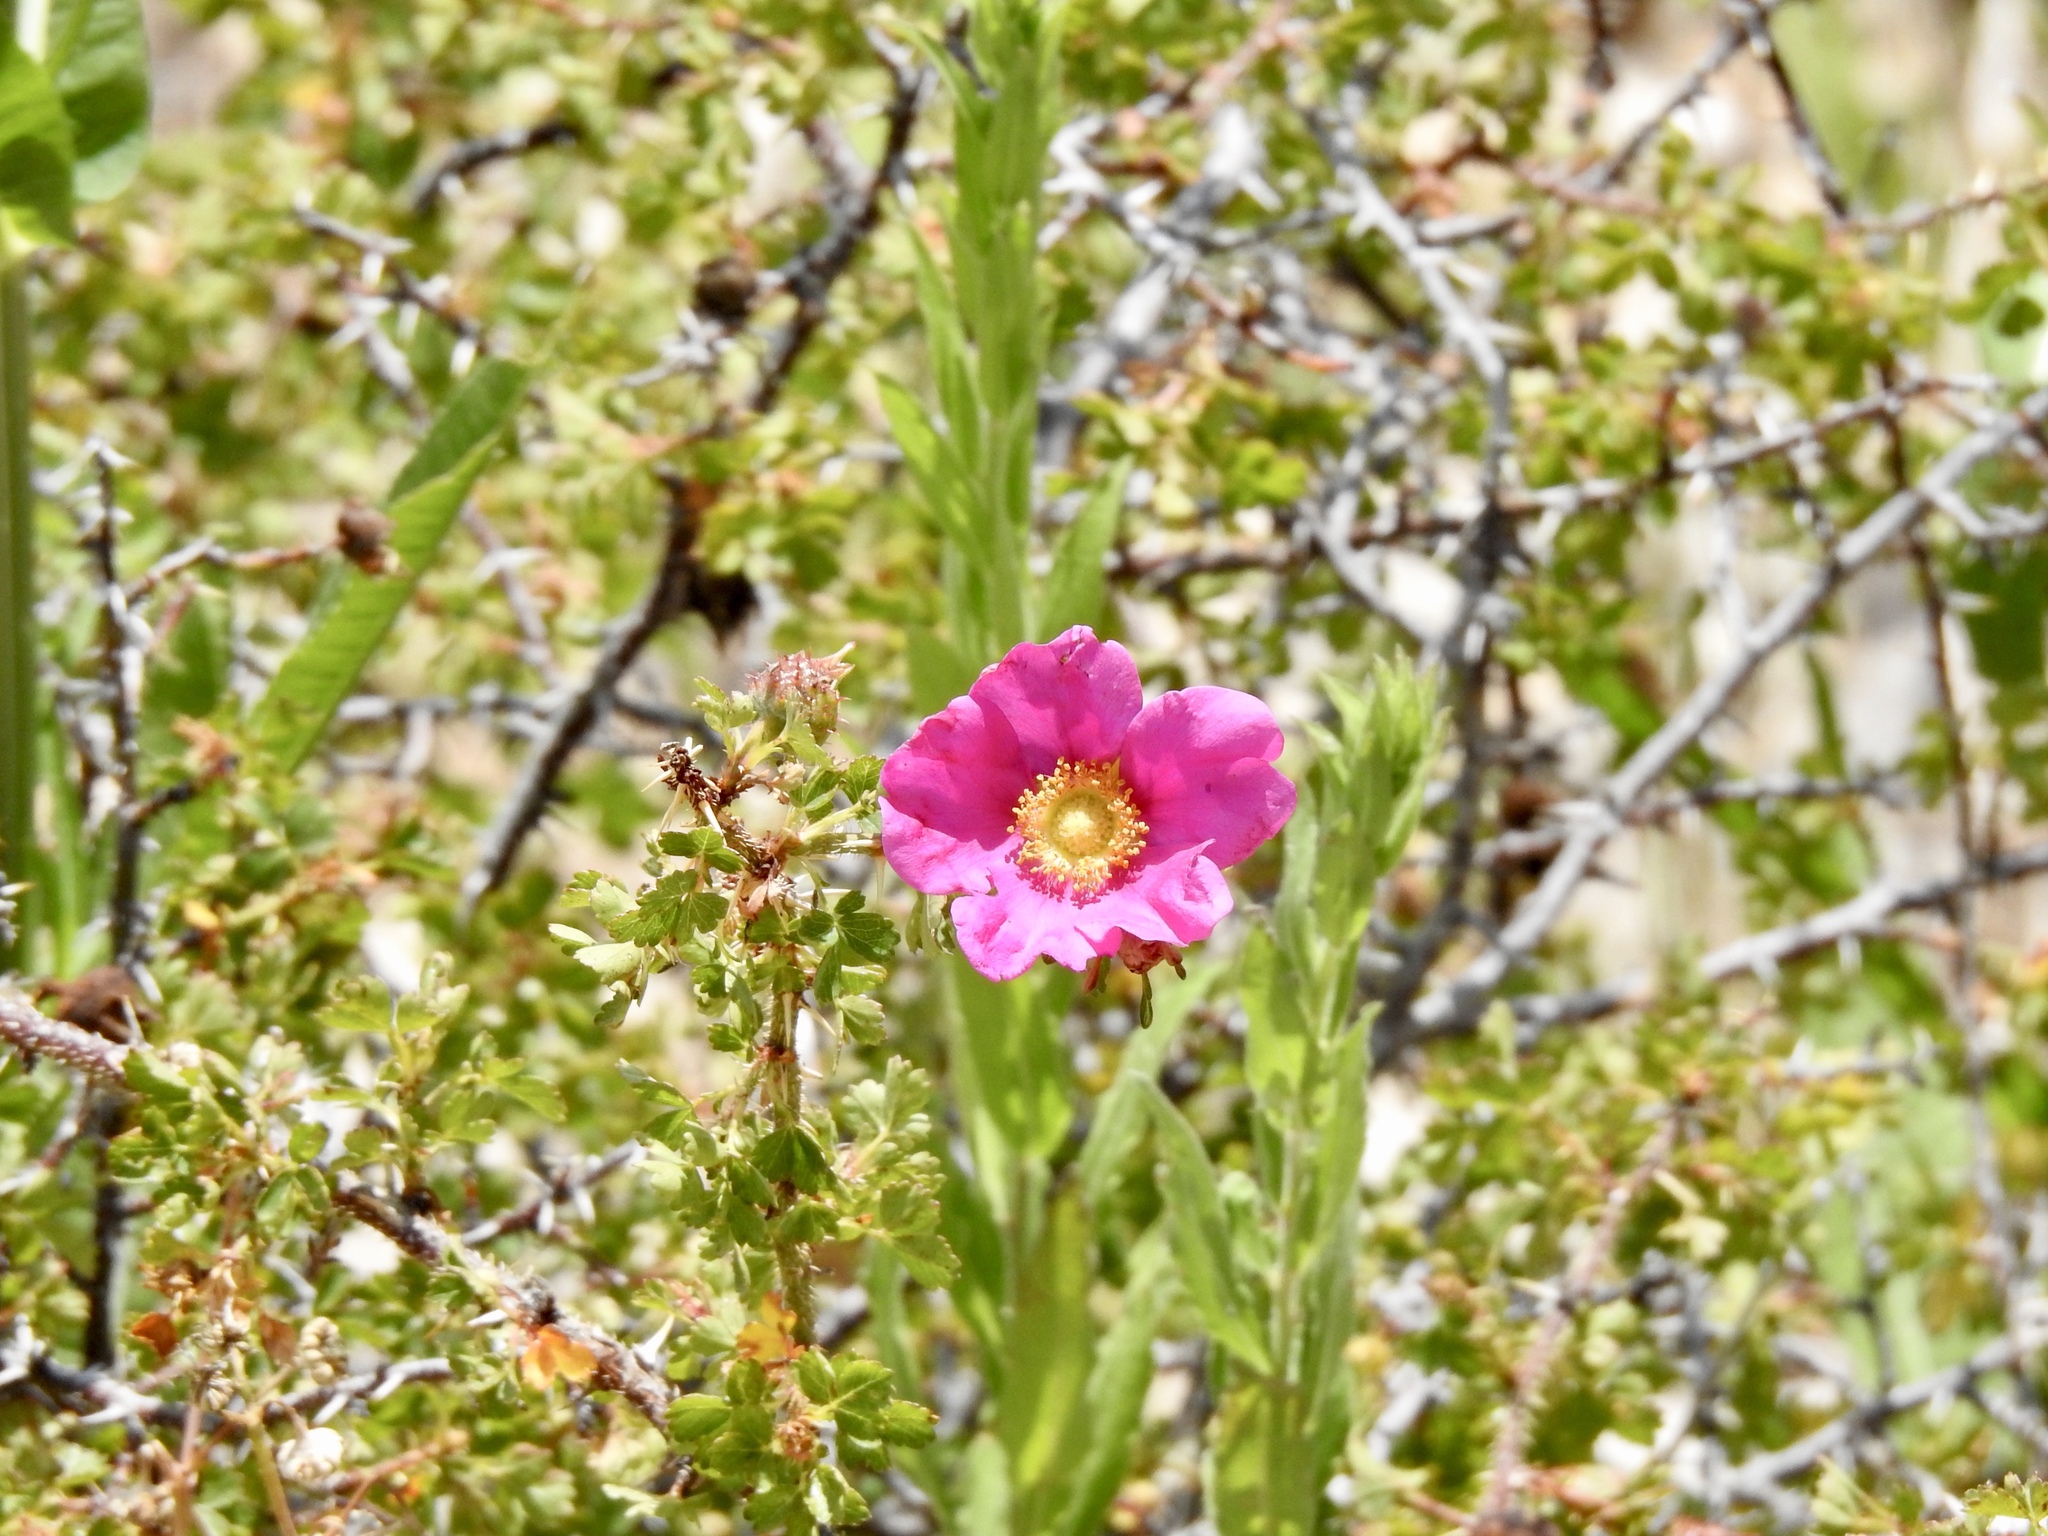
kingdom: Plantae
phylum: Tracheophyta
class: Magnoliopsida
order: Rosales
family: Rosaceae
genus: Rosa
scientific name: Rosa stellata
